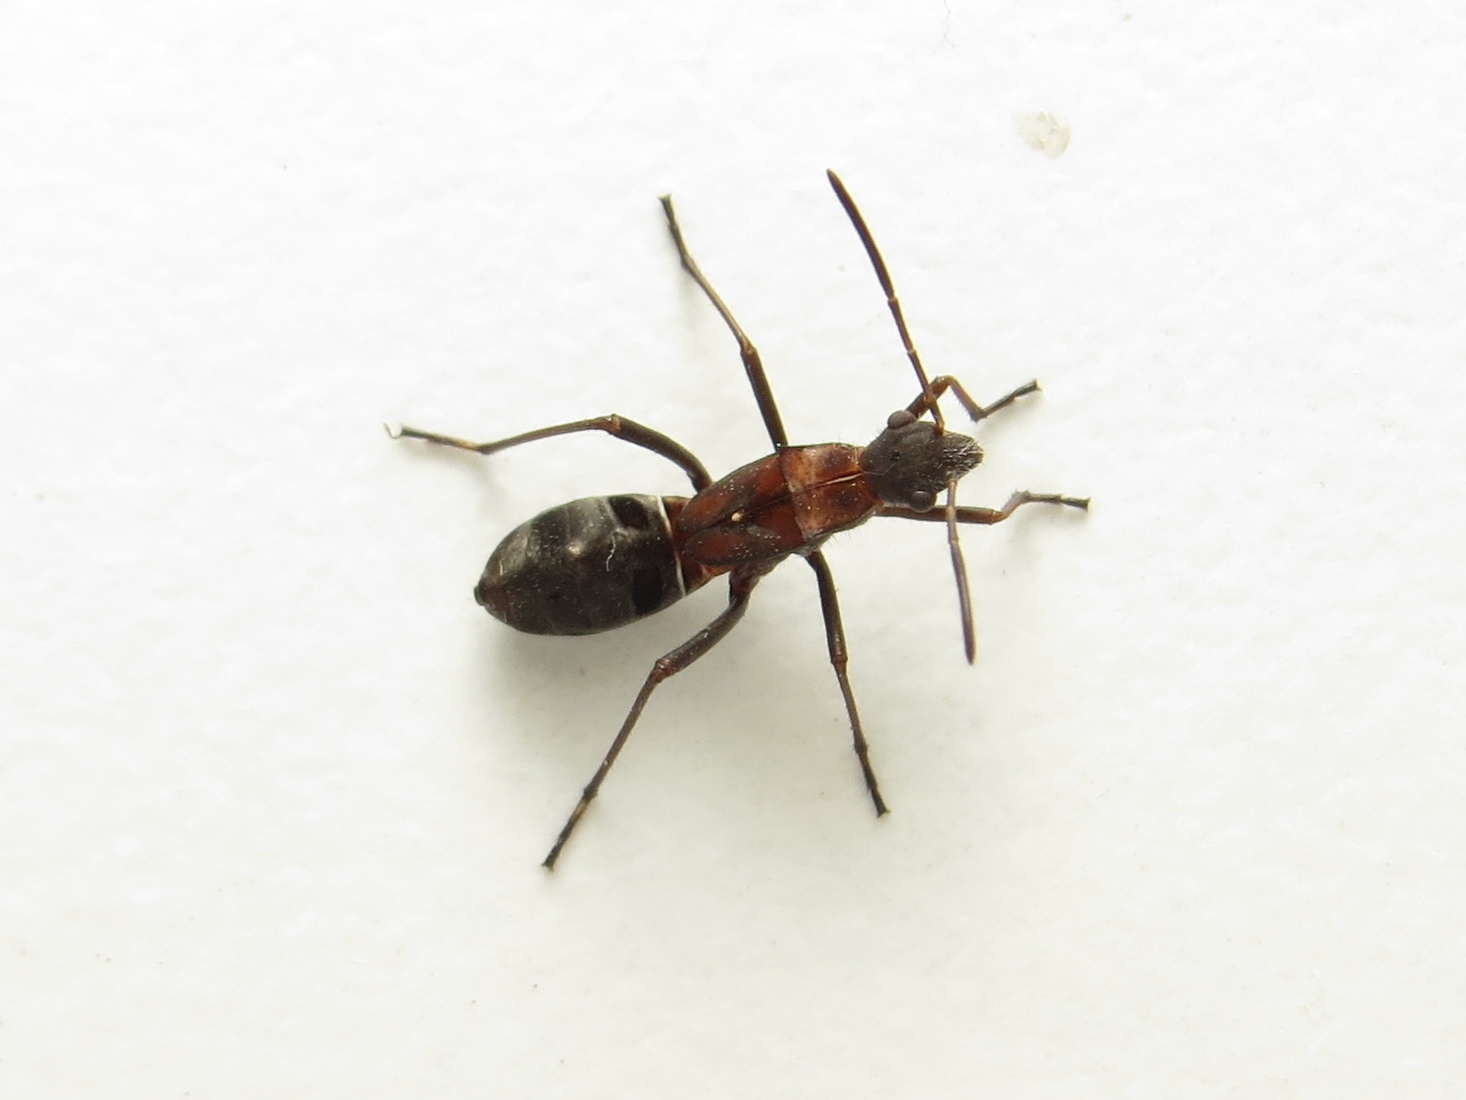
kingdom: Animalia
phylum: Arthropoda
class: Insecta
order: Hemiptera
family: Alydidae
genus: Alydus
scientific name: Alydus calcaratus
